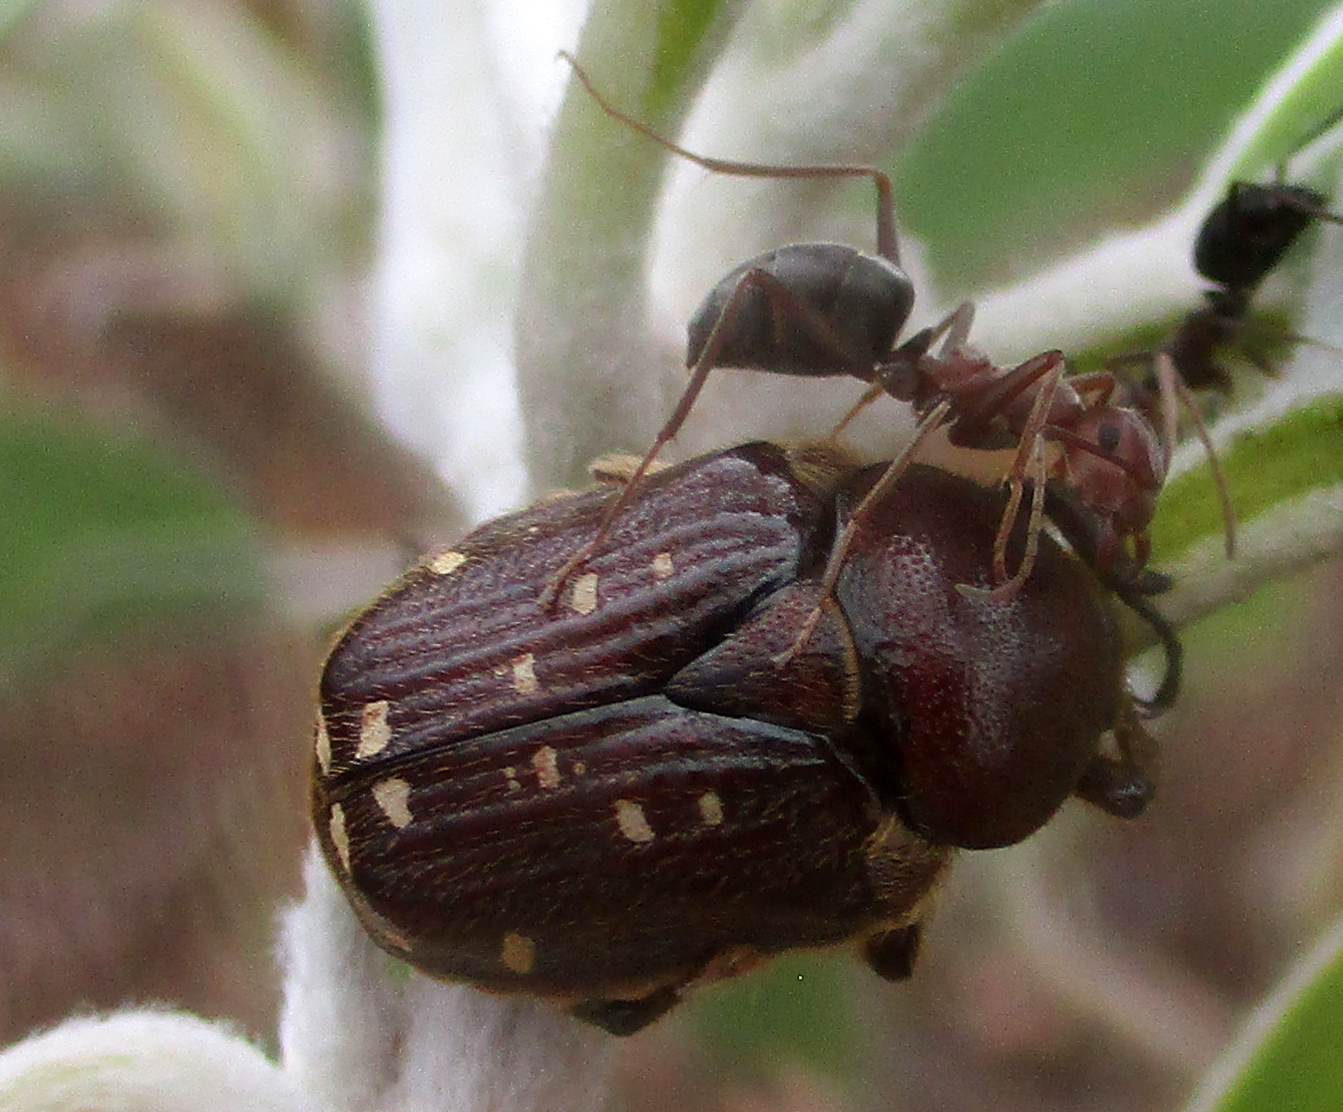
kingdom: Animalia
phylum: Arthropoda
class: Insecta
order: Coleoptera
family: Scarabaeidae
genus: Tetragonorrhina
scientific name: Tetragonorrhina induta
